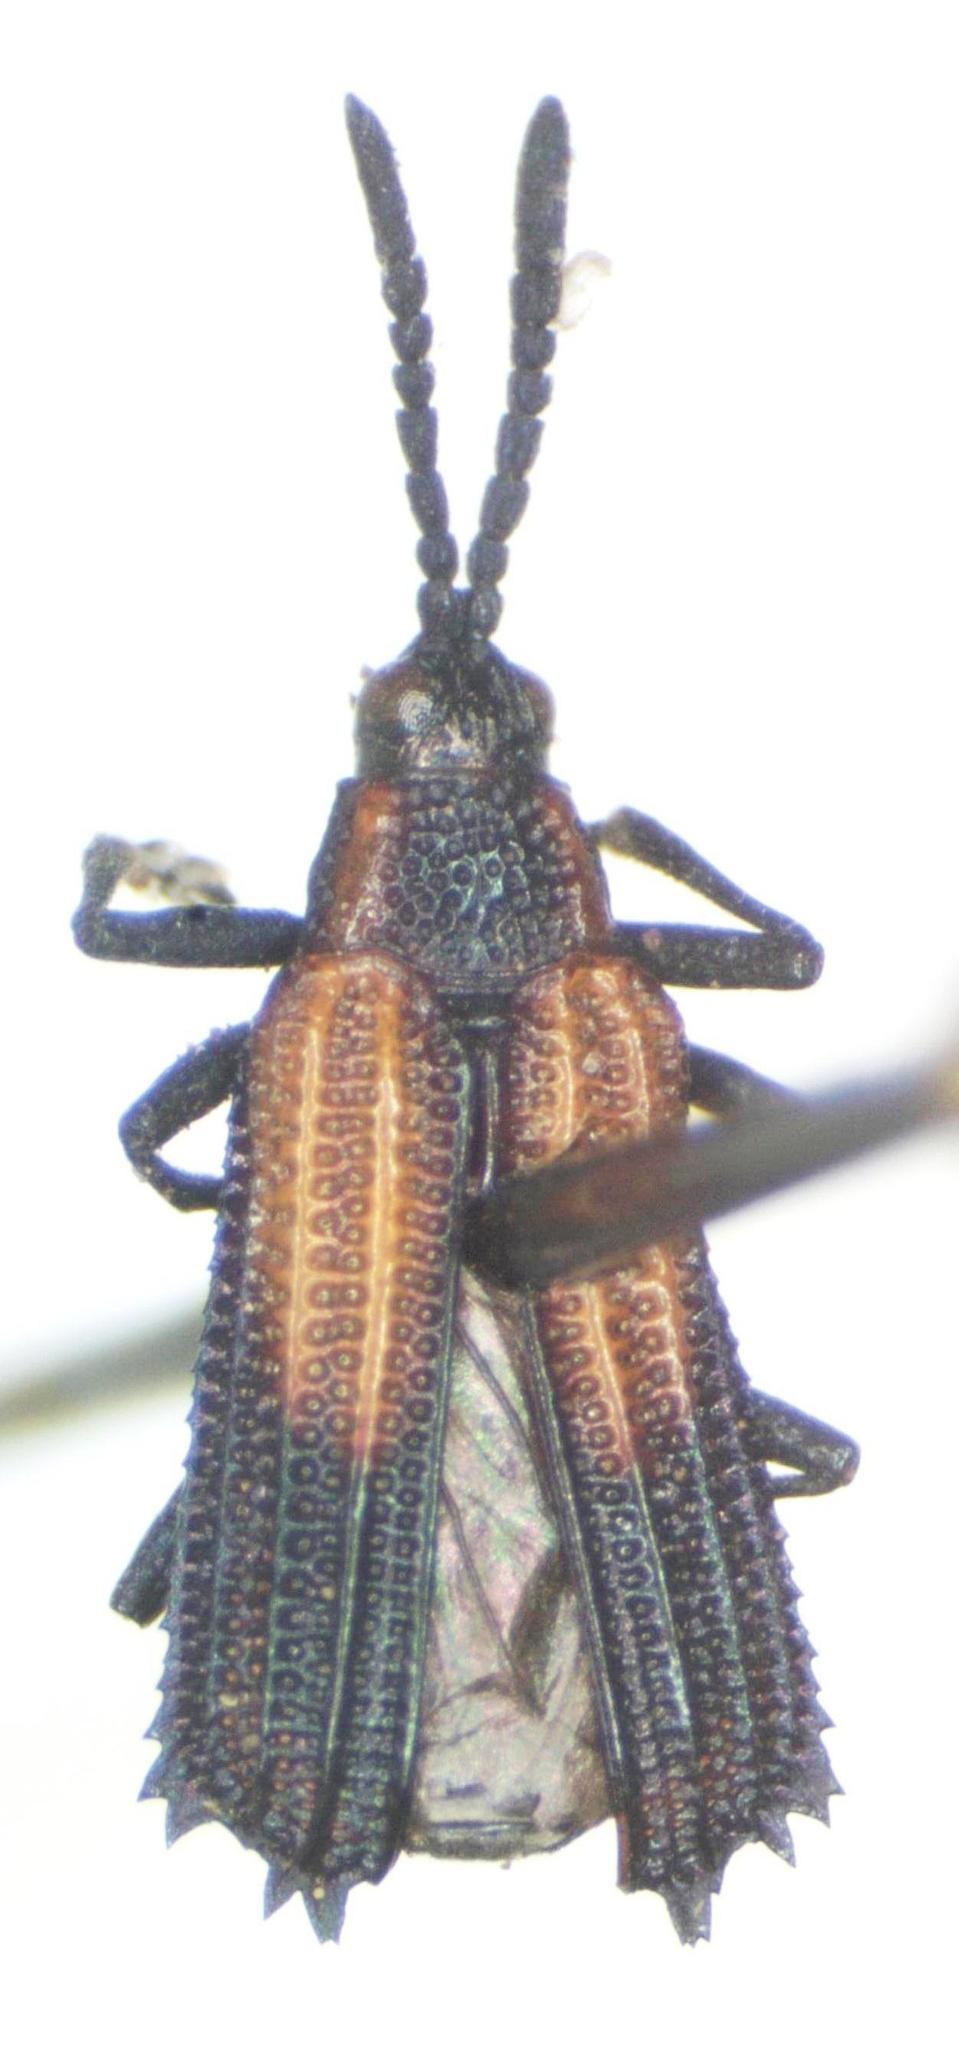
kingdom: Animalia
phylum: Arthropoda
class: Insecta
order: Coleoptera
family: Chrysomelidae
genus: Pentispa
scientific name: Pentispa clarkella
